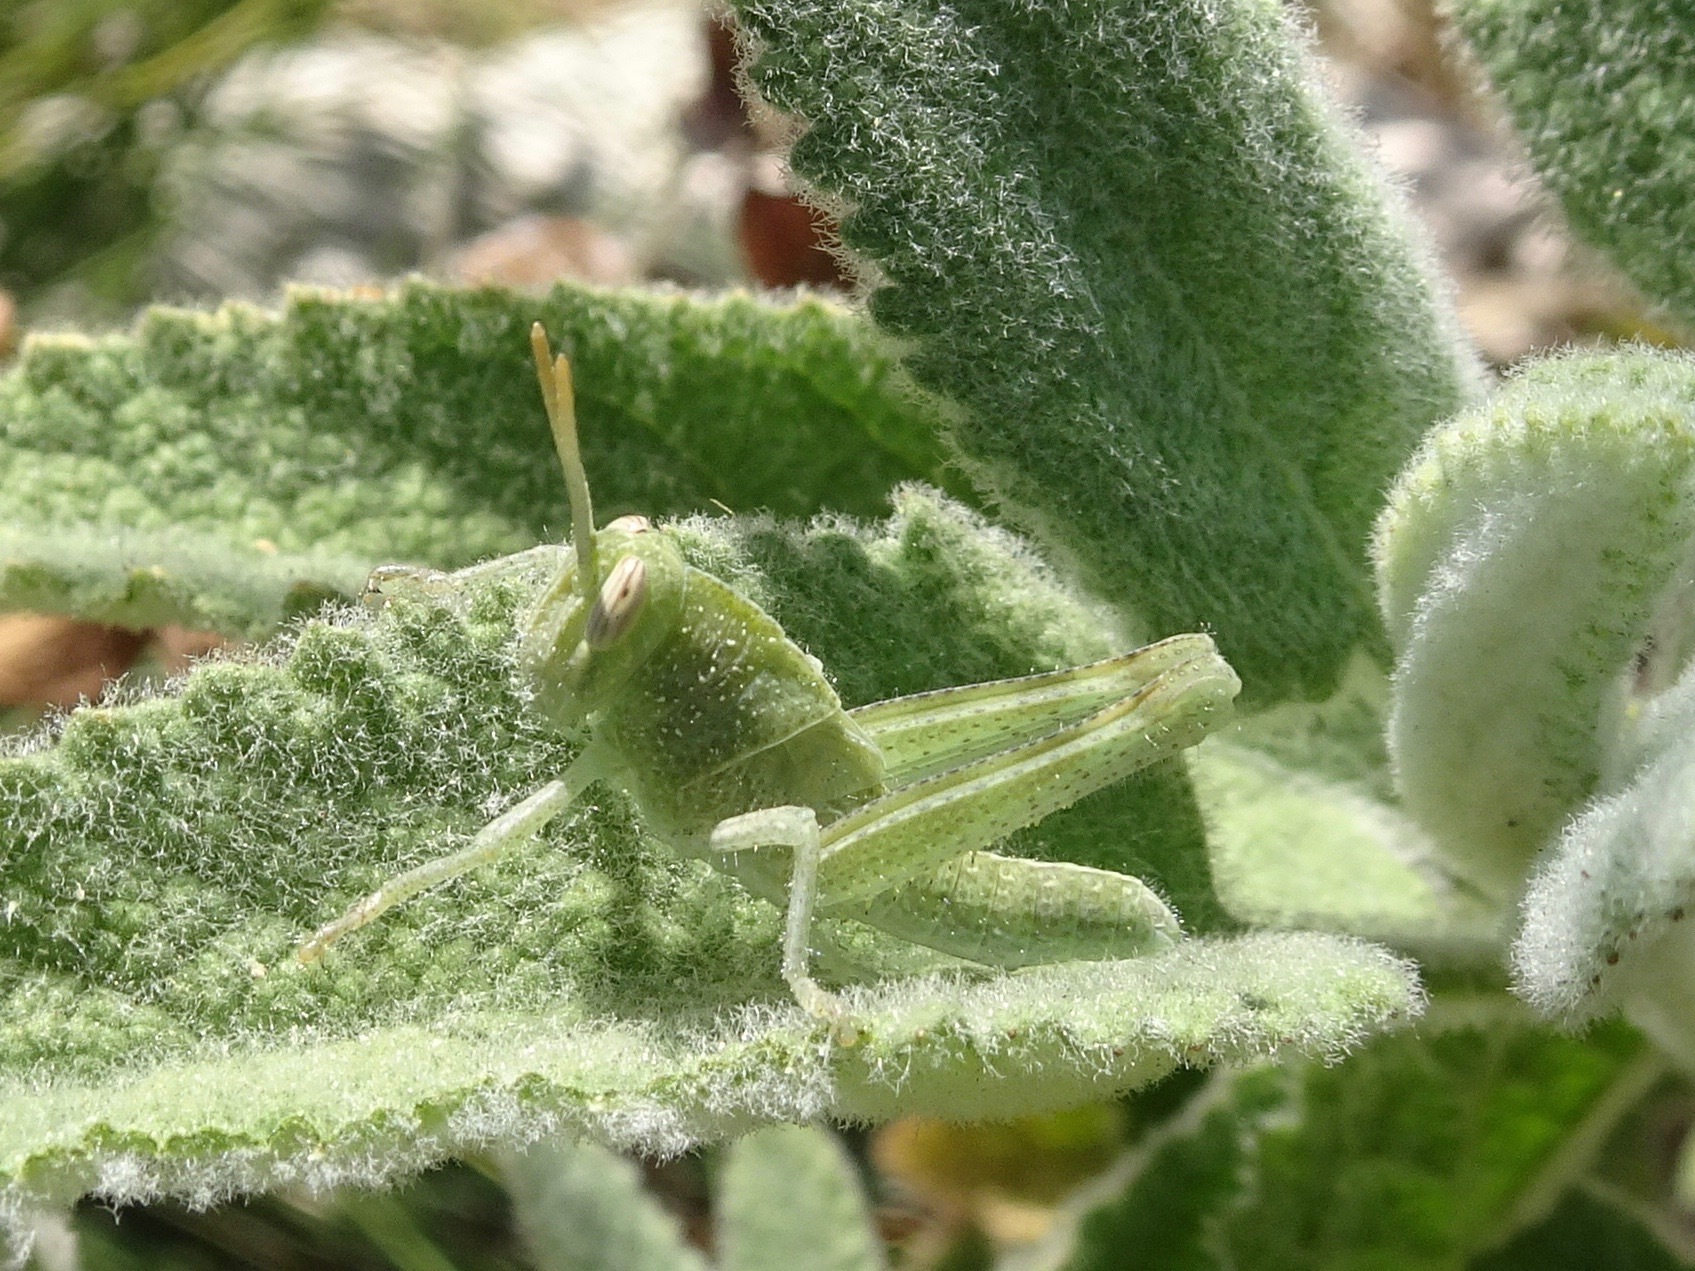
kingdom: Animalia
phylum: Arthropoda
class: Insecta
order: Orthoptera
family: Acrididae
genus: Schistocerca
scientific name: Schistocerca nitens
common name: Vagrant grasshopper
